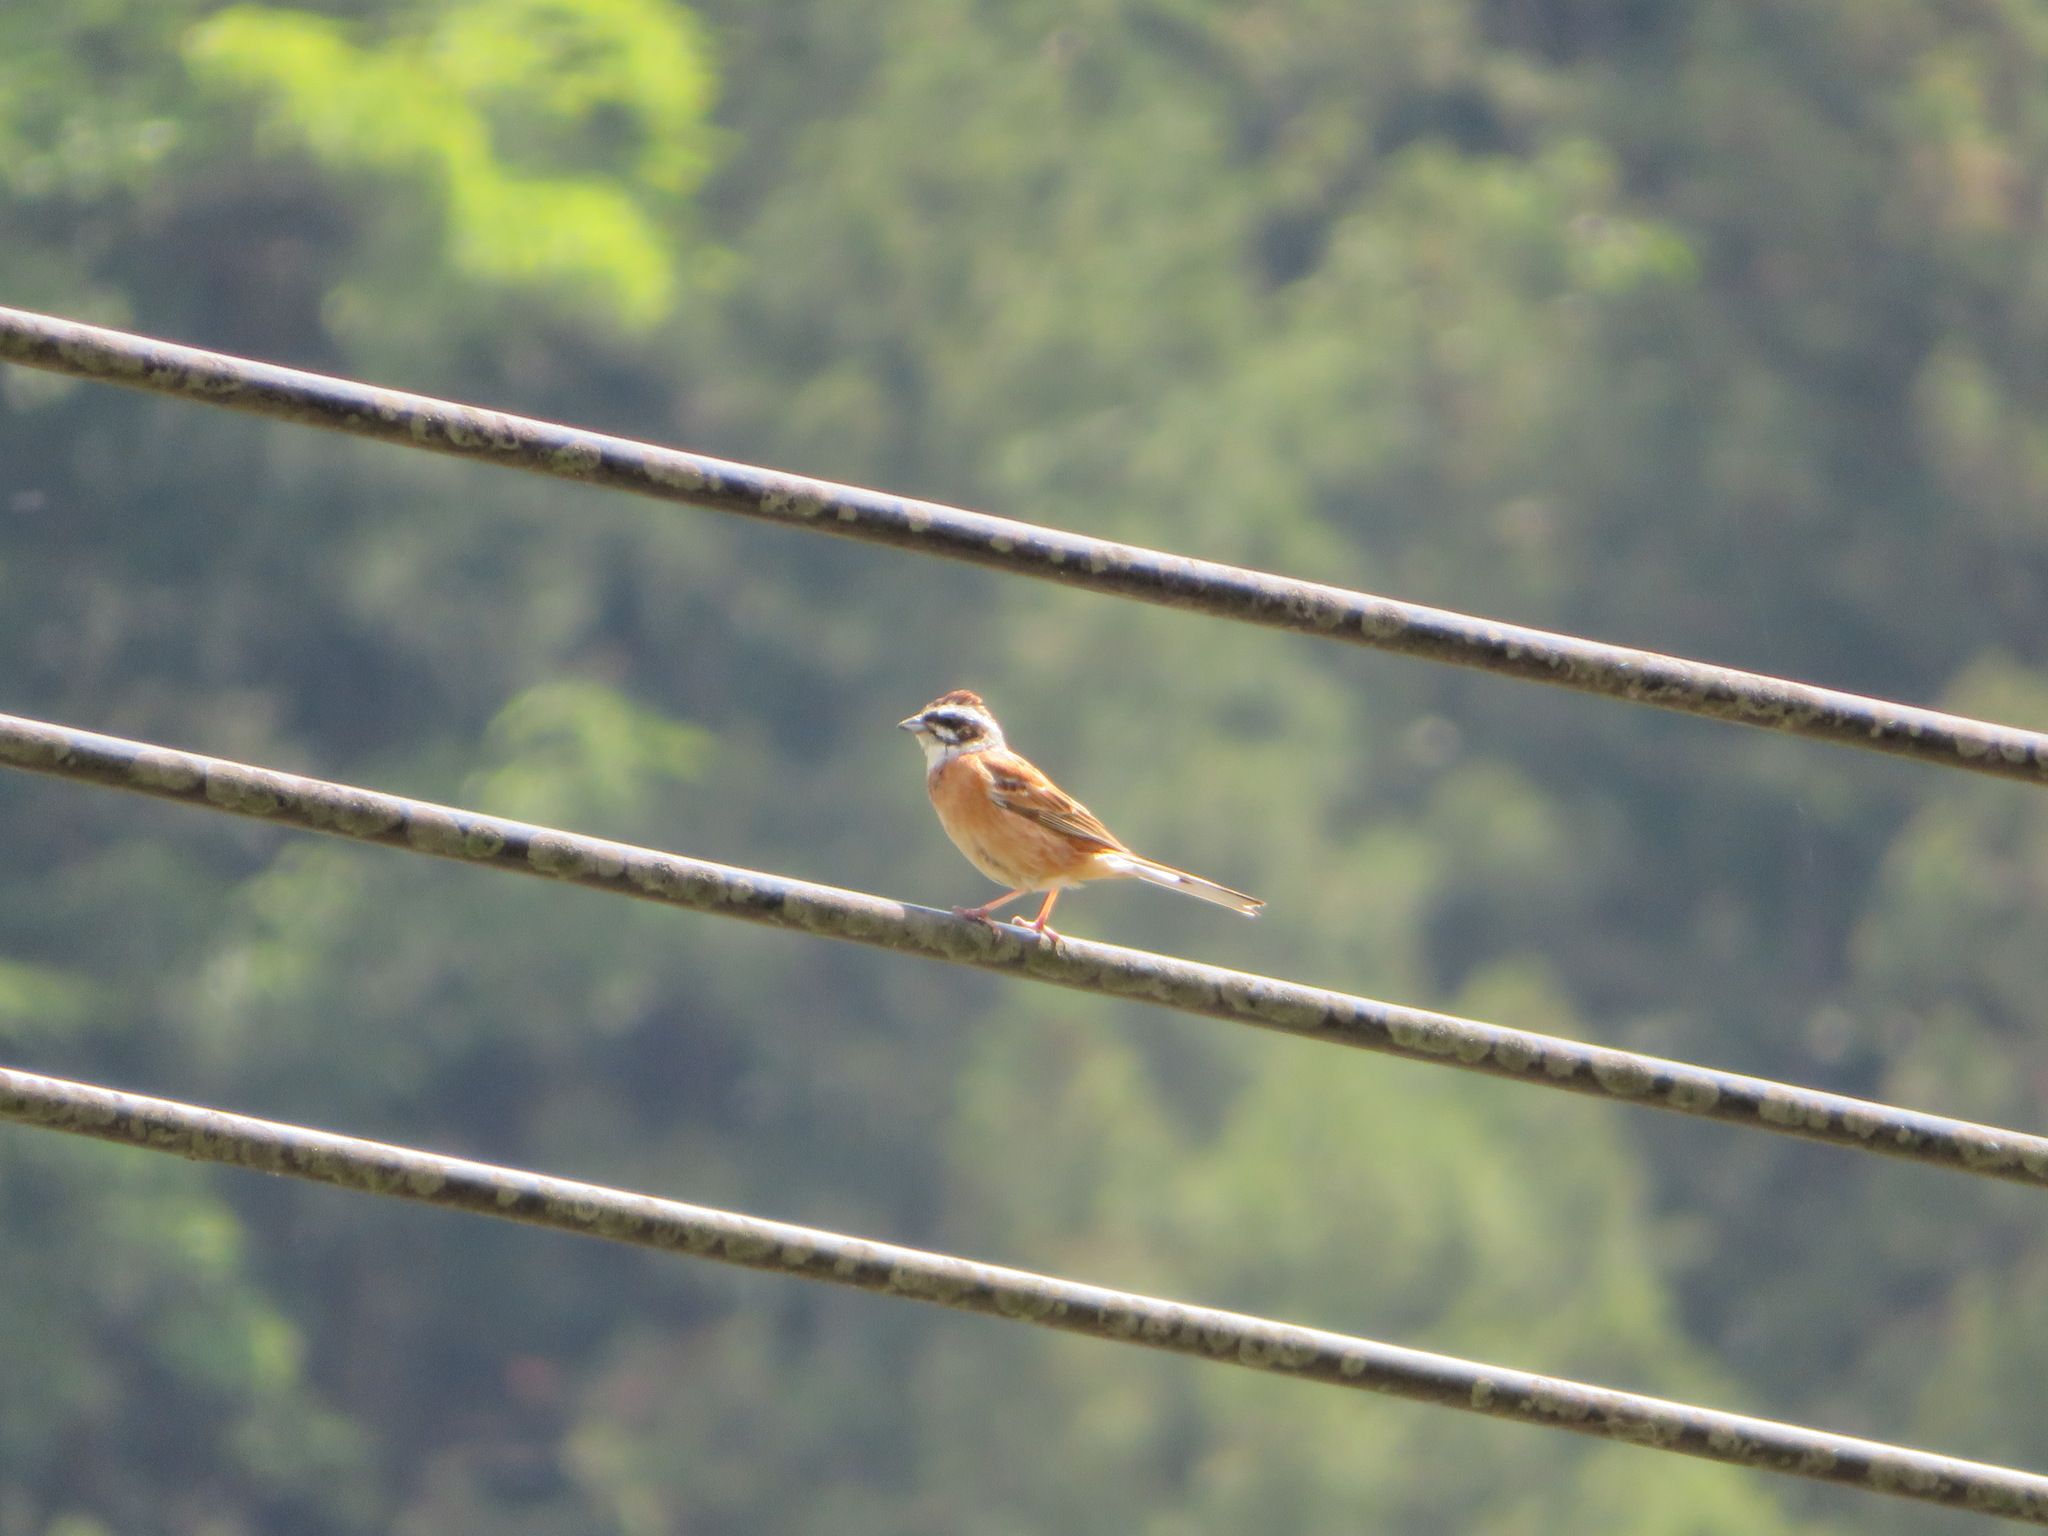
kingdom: Animalia
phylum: Chordata
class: Aves
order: Passeriformes
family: Emberizidae
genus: Emberiza
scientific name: Emberiza cioides
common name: Meadow bunting
